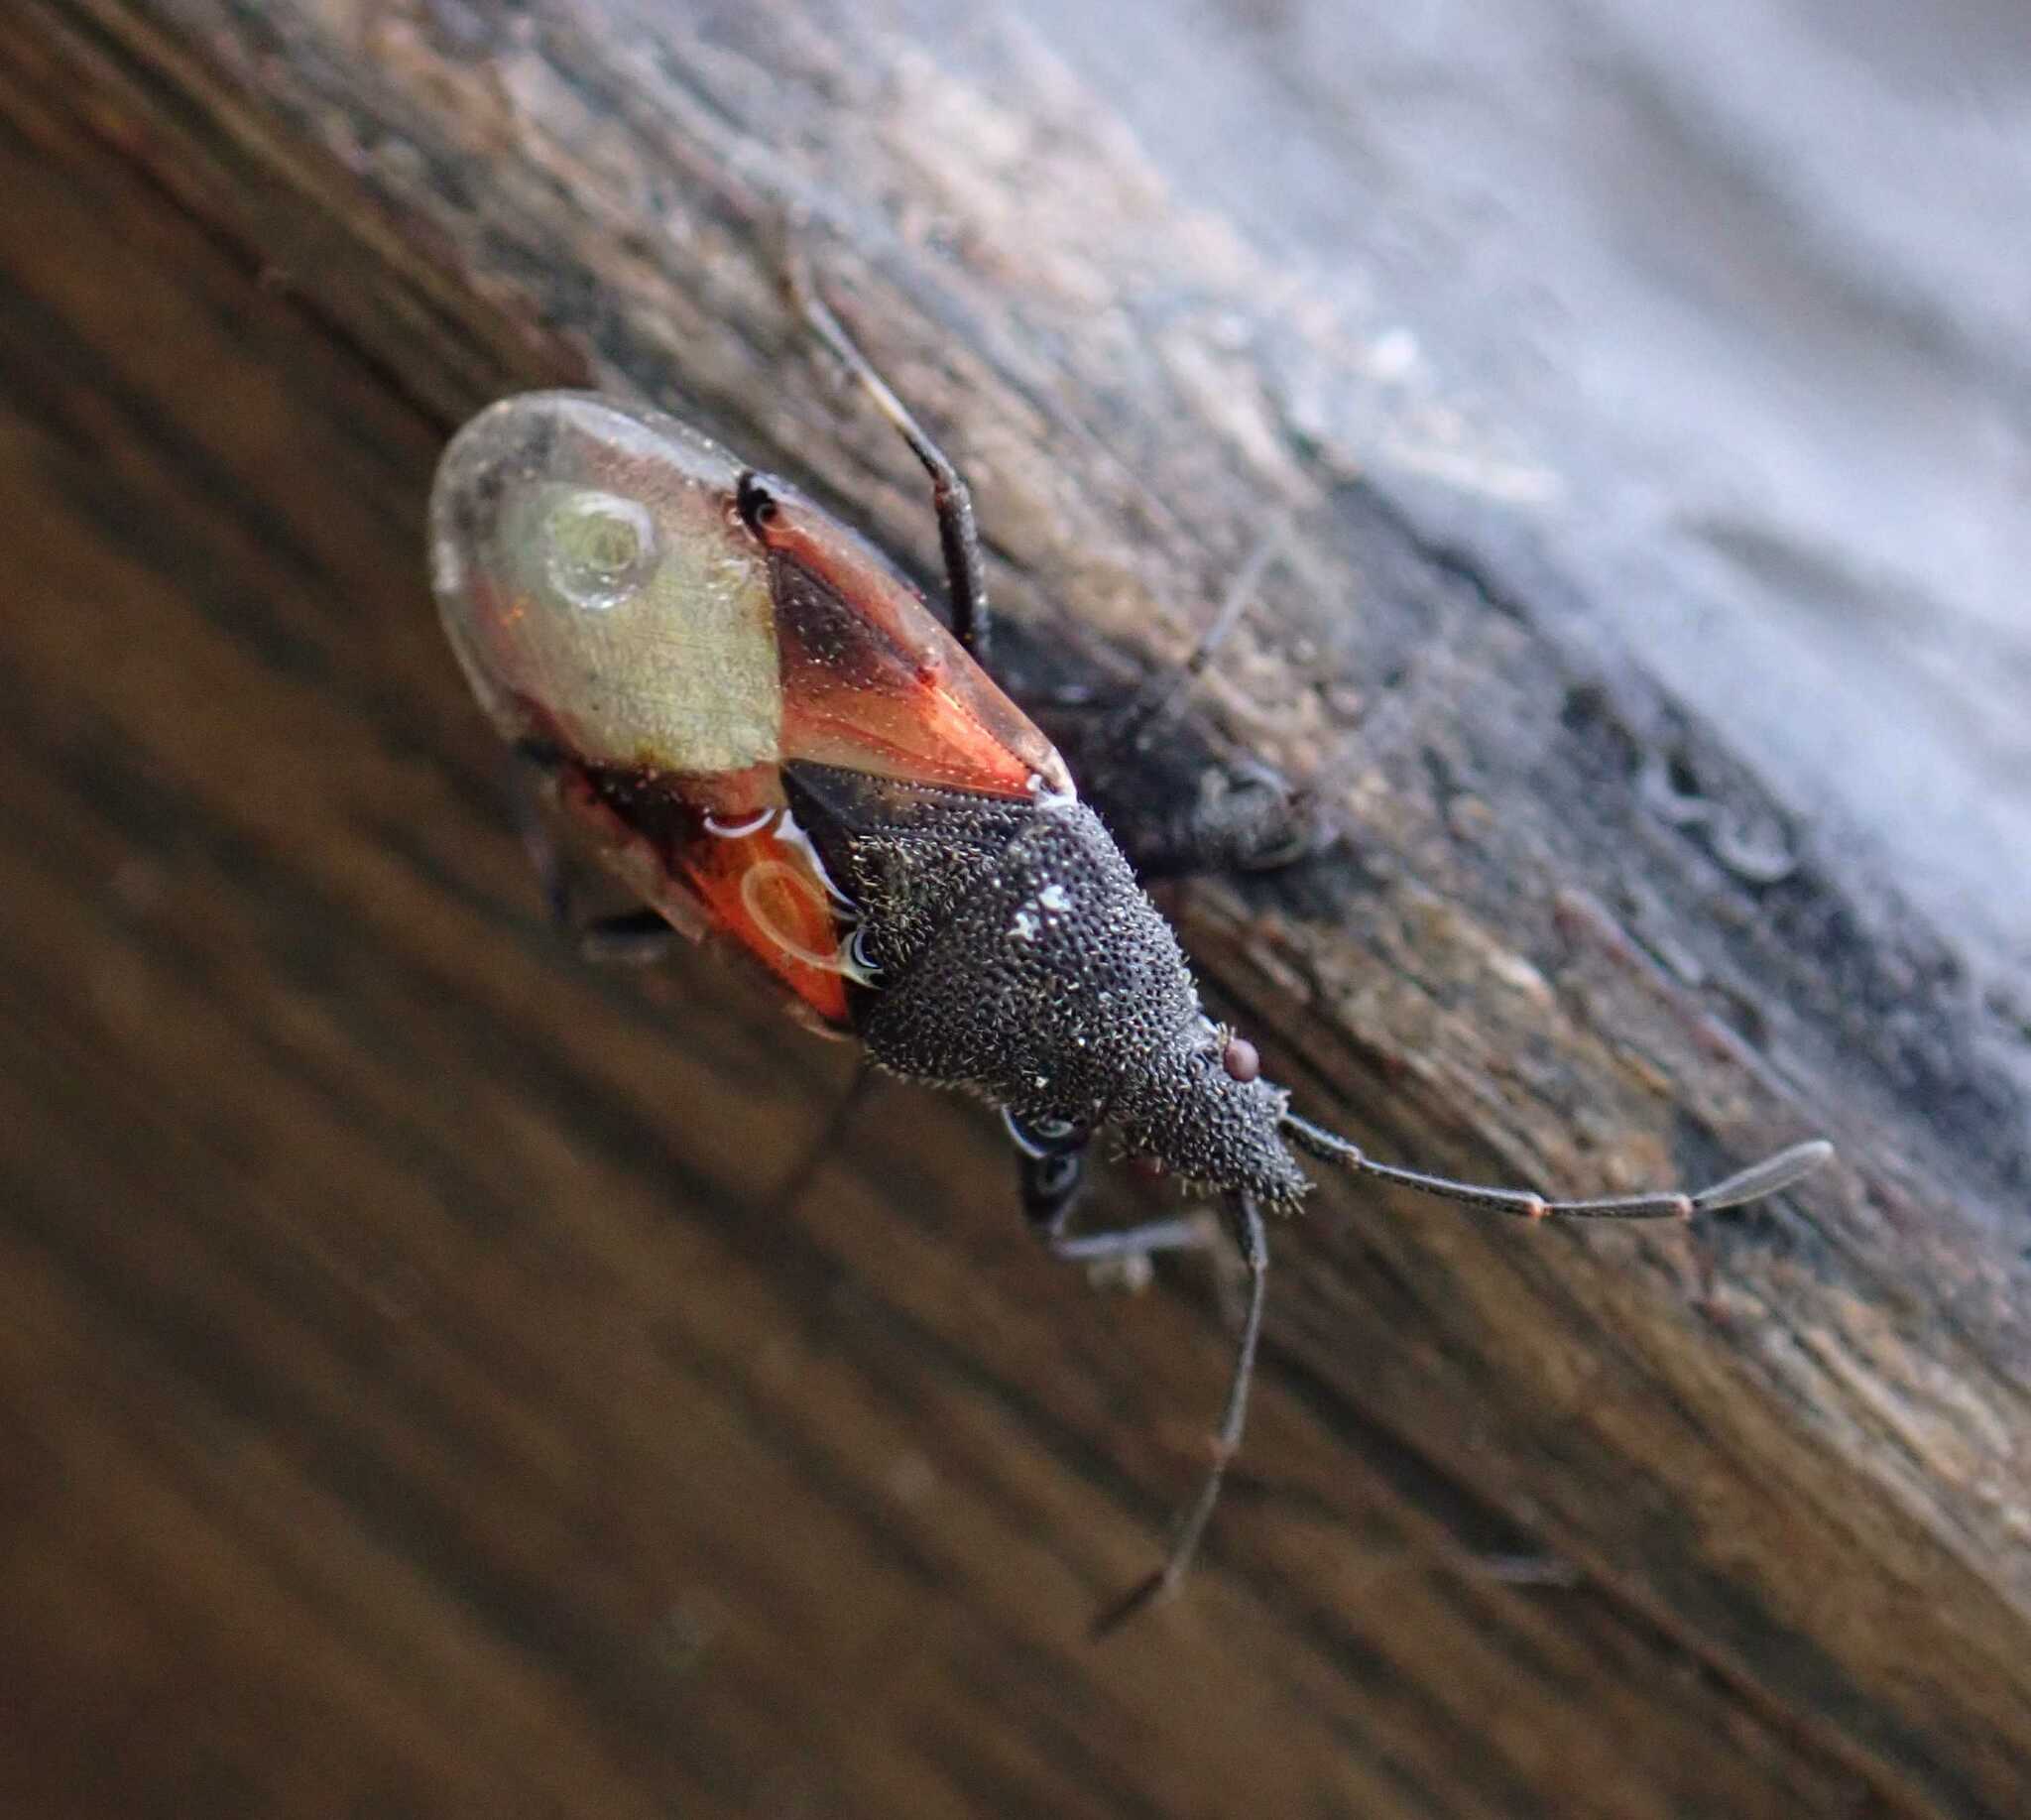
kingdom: Animalia
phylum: Arthropoda
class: Insecta
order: Hemiptera
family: Oxycarenidae
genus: Oxycarenus
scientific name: Oxycarenus lavaterae
